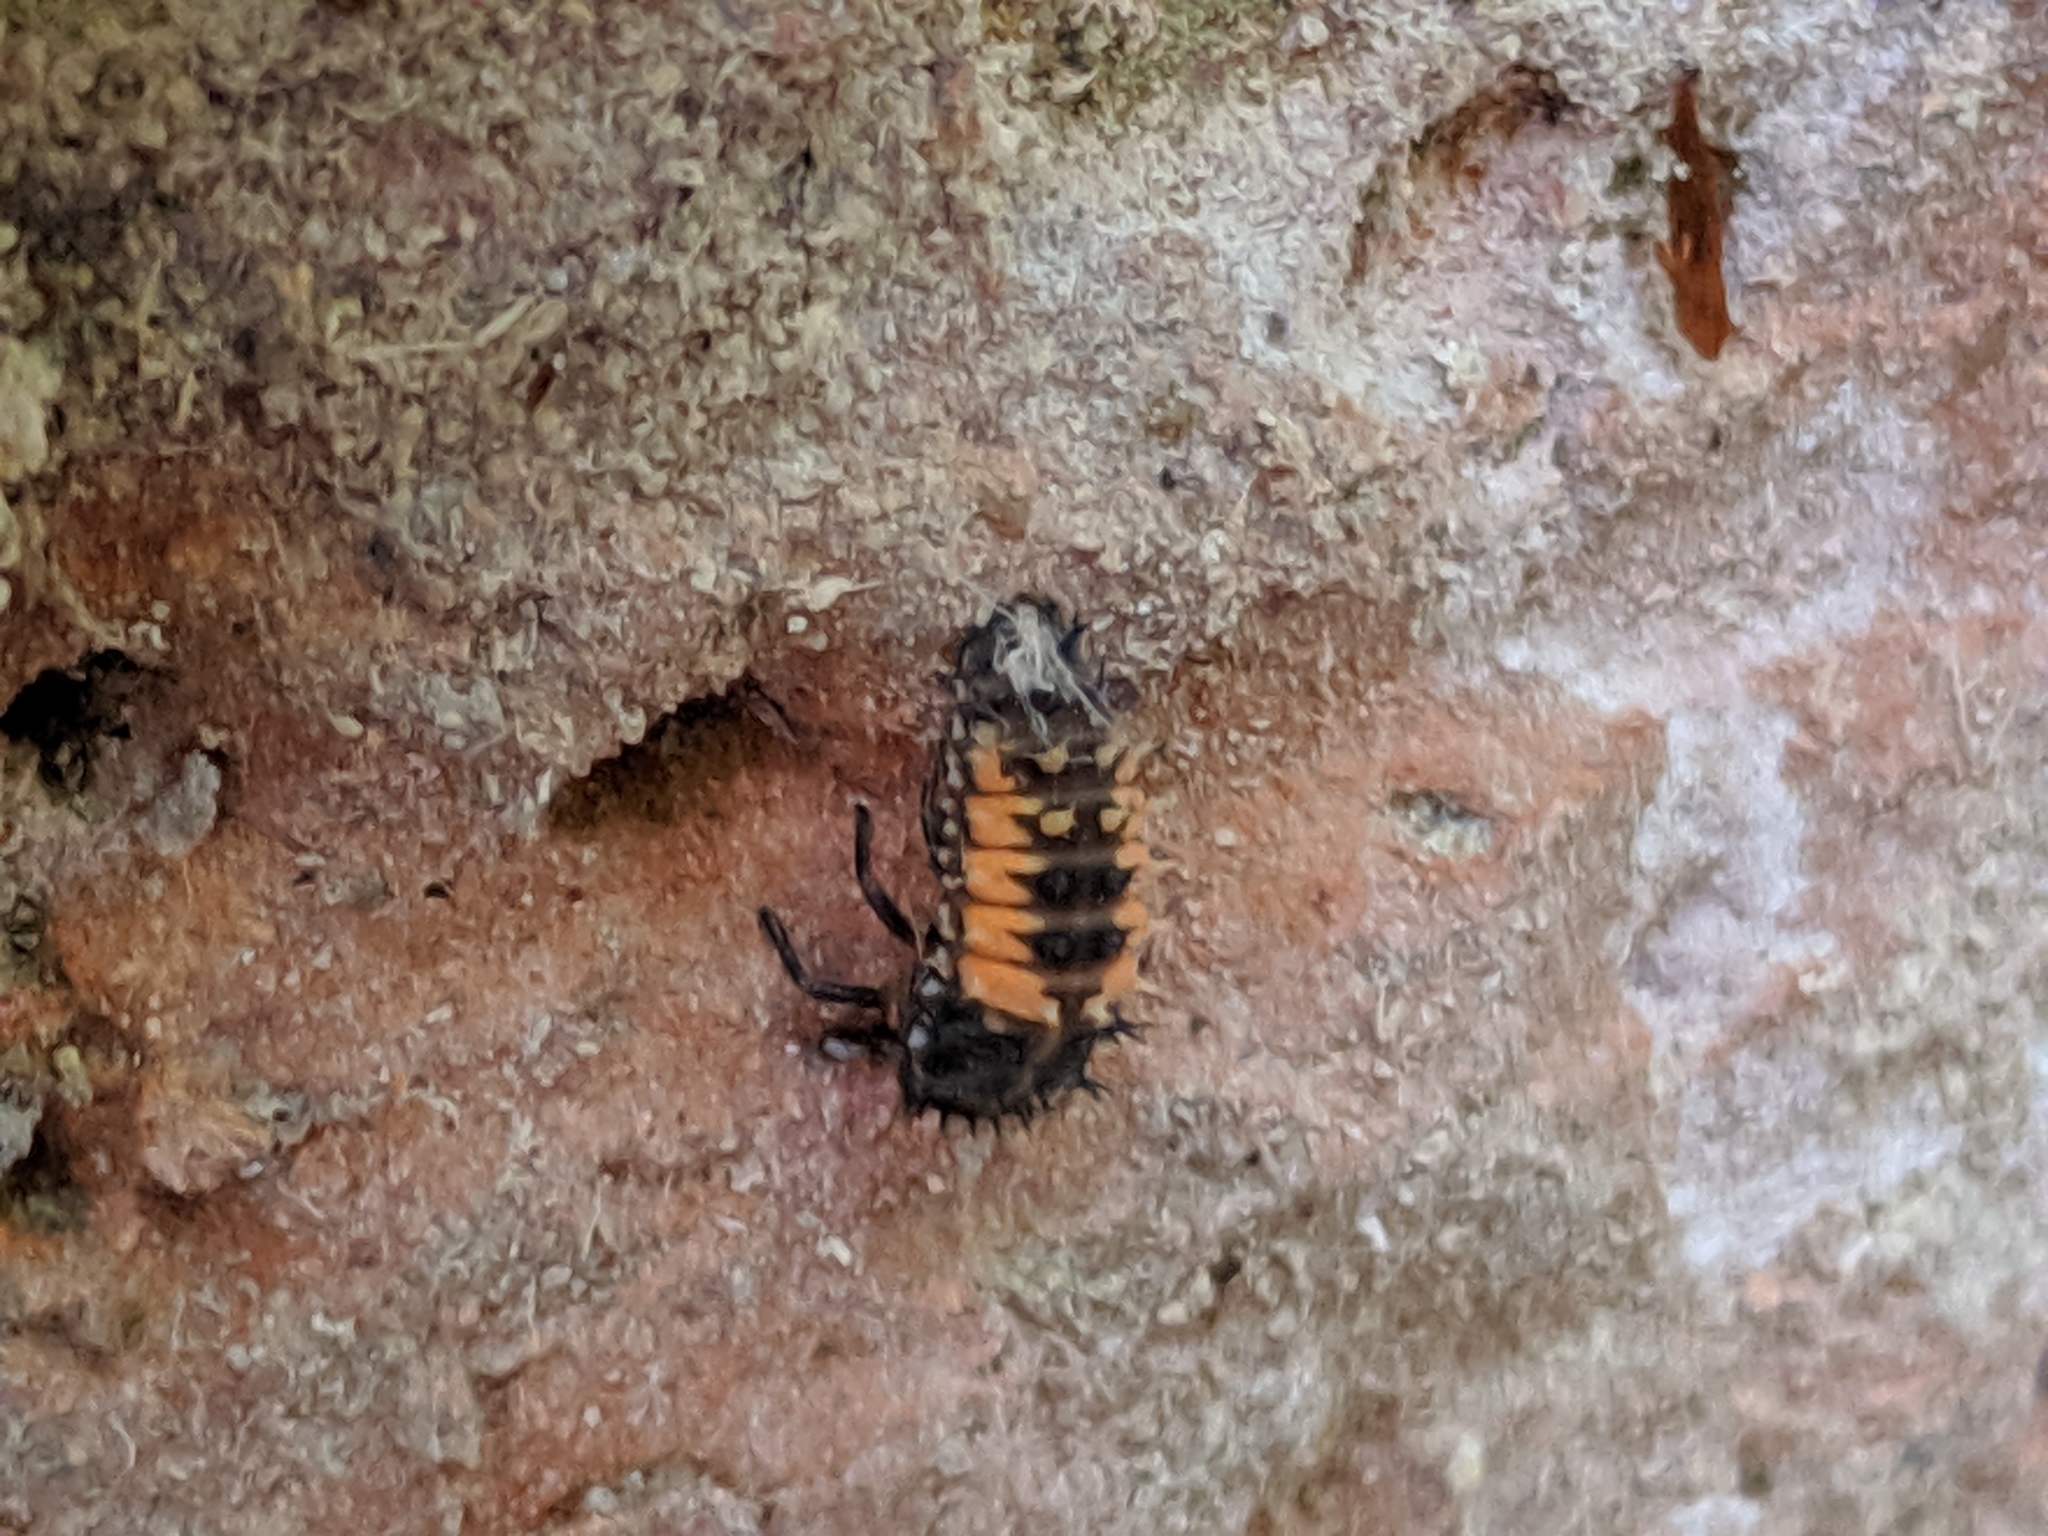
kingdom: Animalia
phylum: Arthropoda
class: Insecta
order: Coleoptera
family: Coccinellidae
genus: Harmonia
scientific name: Harmonia axyridis
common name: Harlequin ladybird
